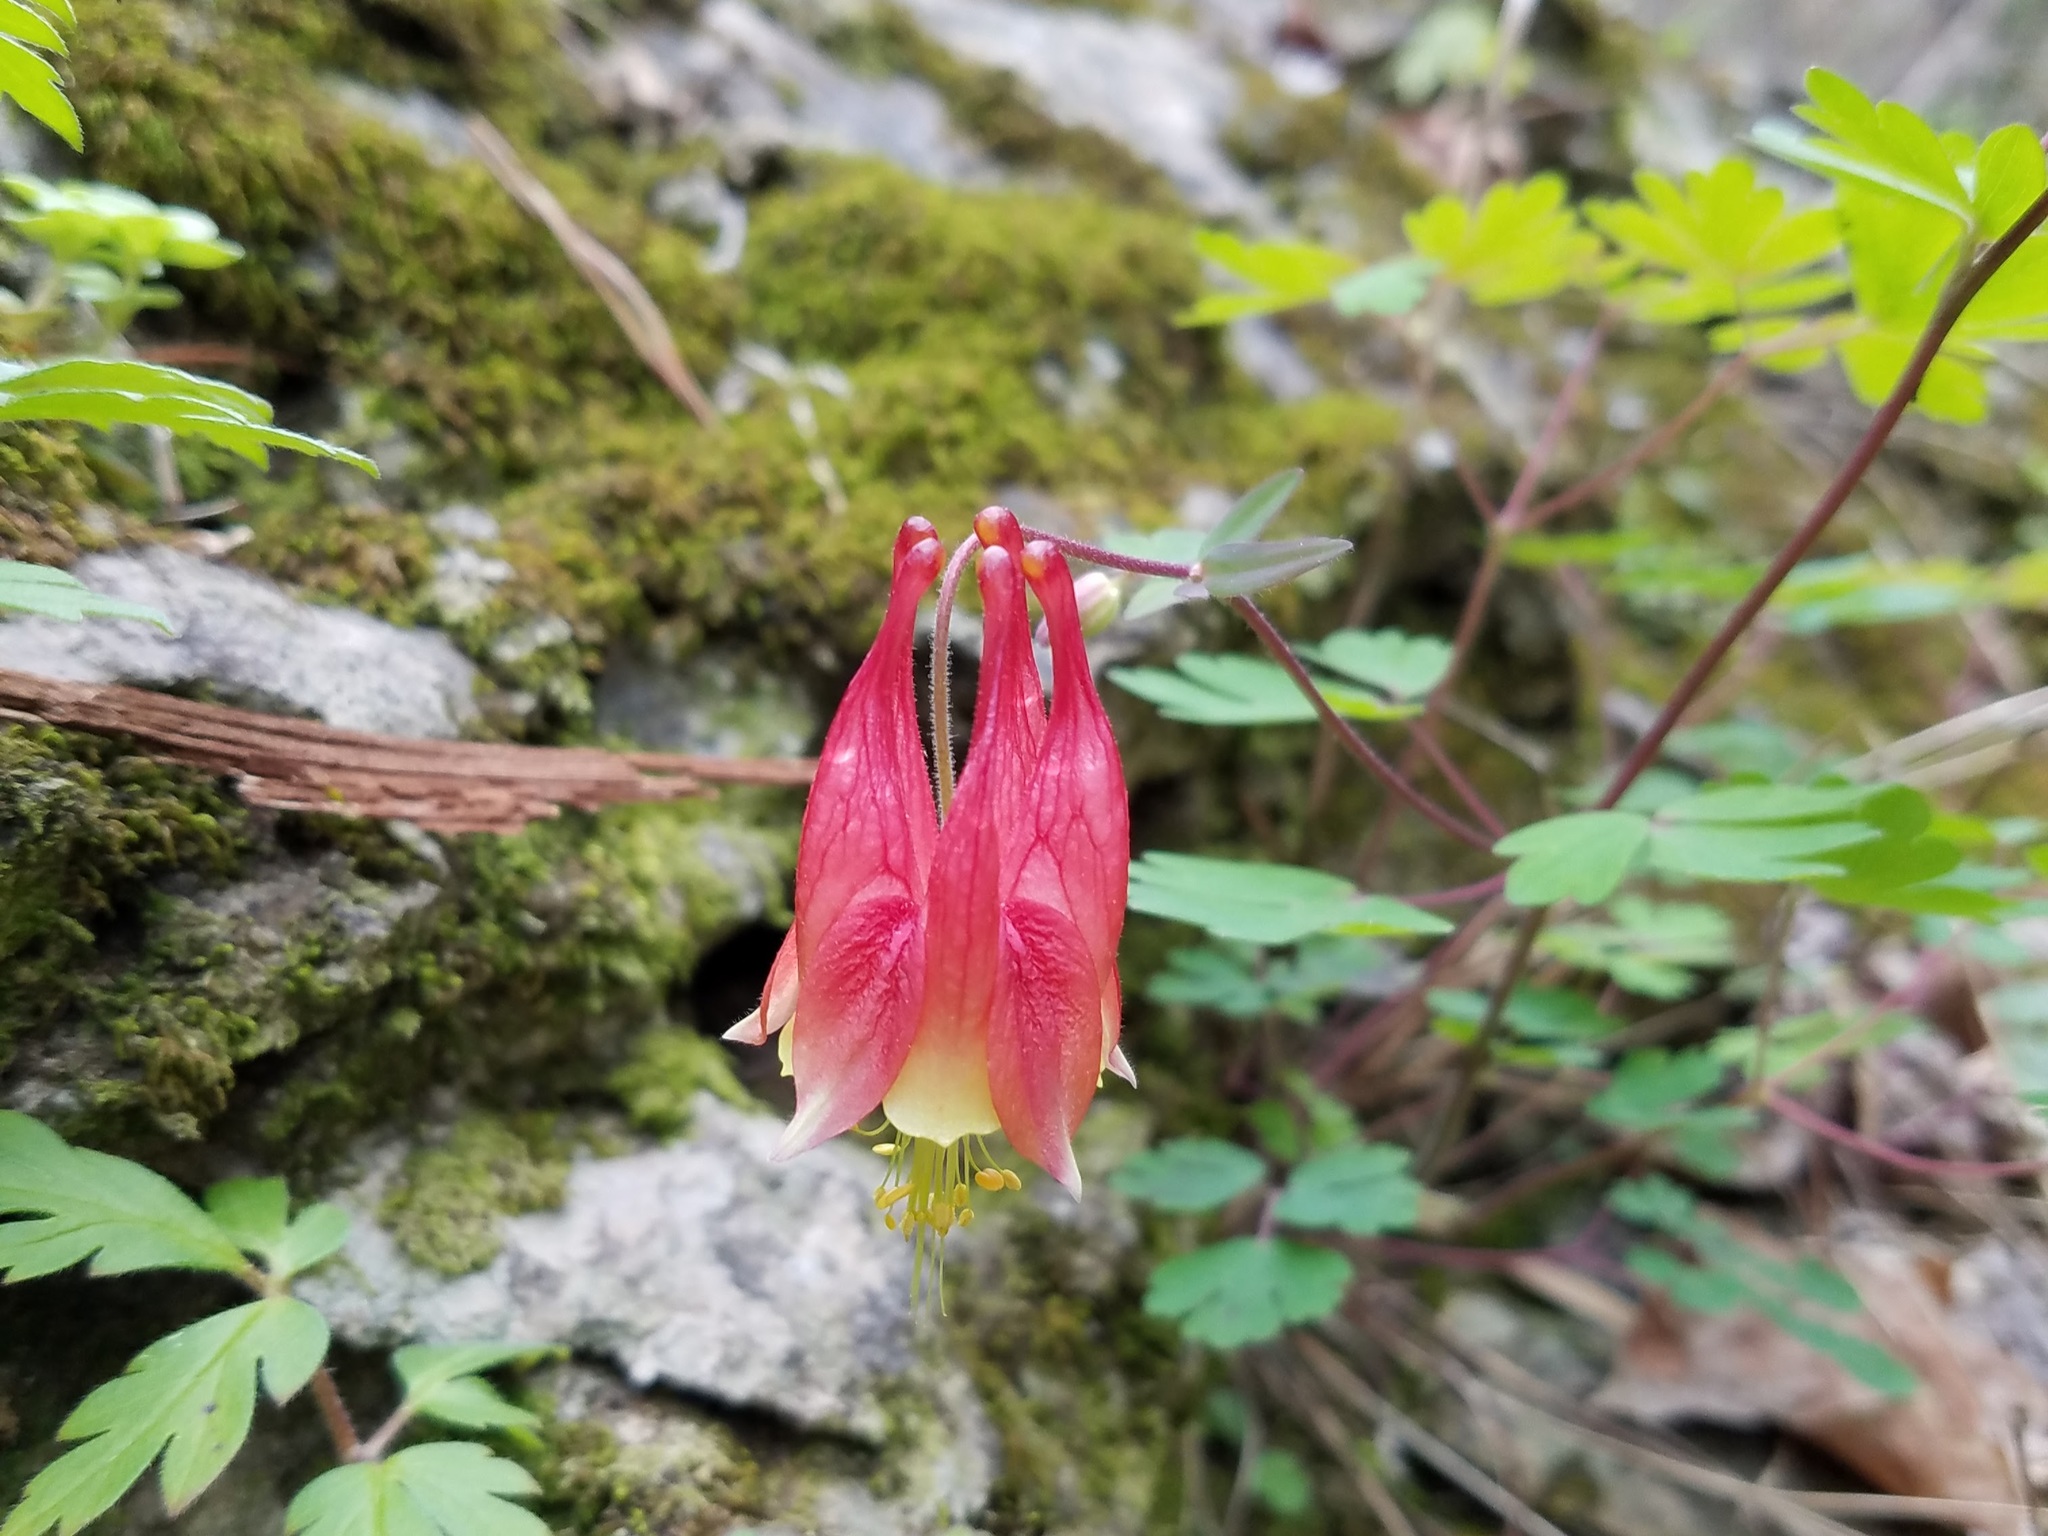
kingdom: Plantae
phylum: Tracheophyta
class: Magnoliopsida
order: Ranunculales
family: Ranunculaceae
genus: Aquilegia
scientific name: Aquilegia canadensis
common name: American columbine
